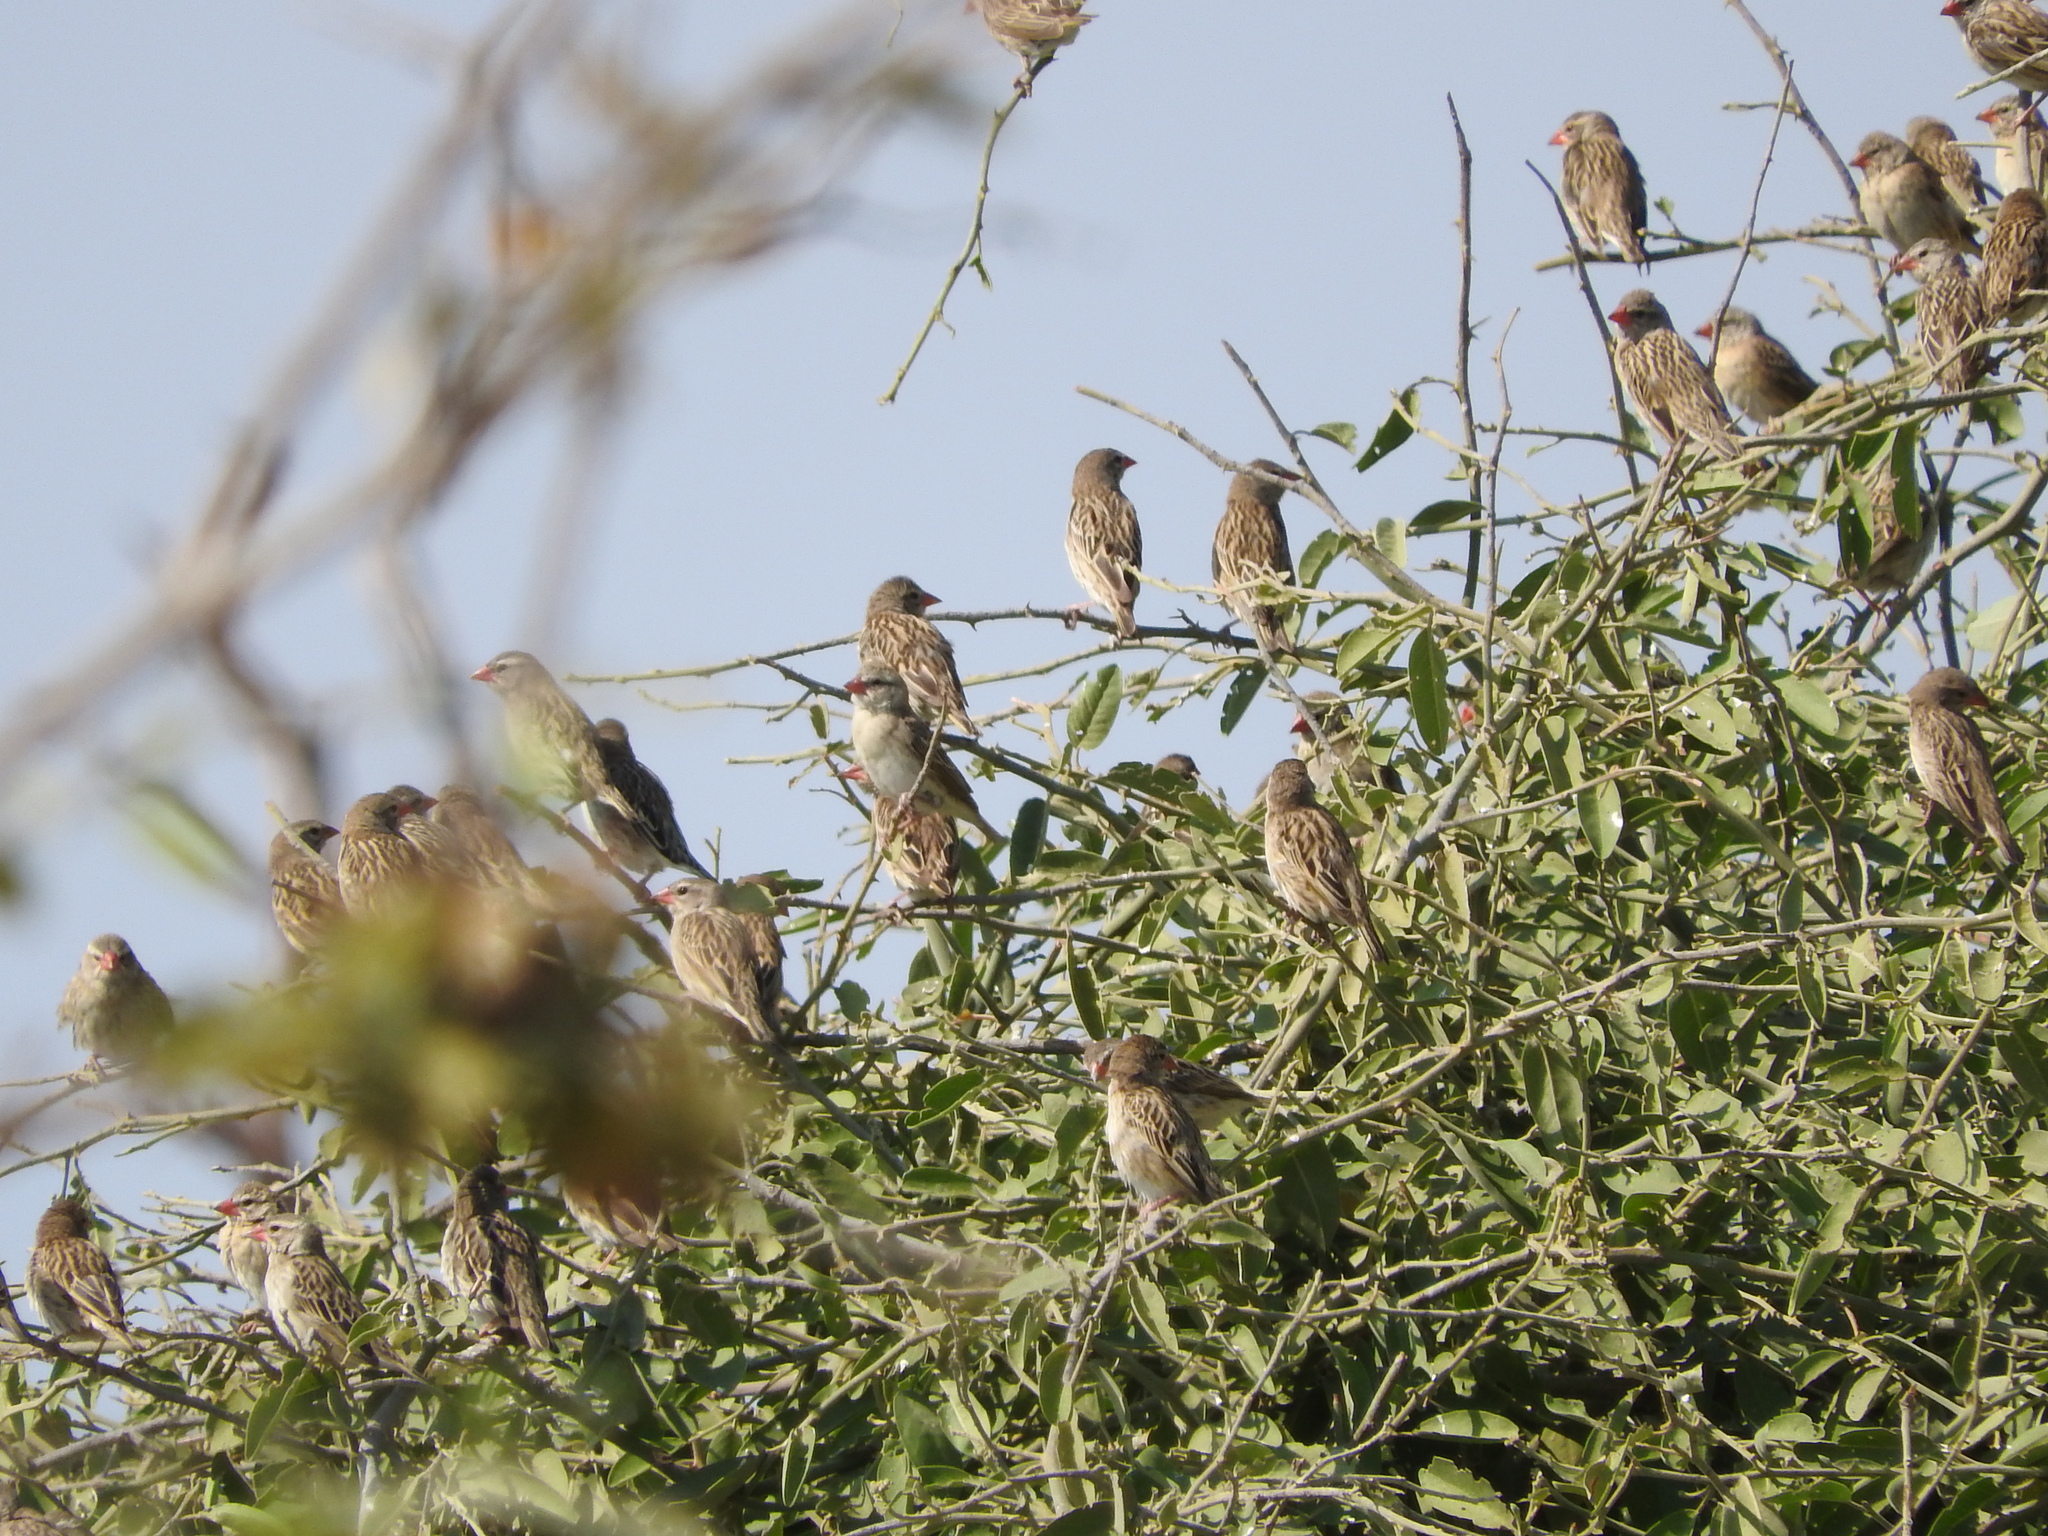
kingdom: Animalia
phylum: Chordata
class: Aves
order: Passeriformes
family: Ploceidae
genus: Quelea
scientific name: Quelea quelea
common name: Red-billed quelea
